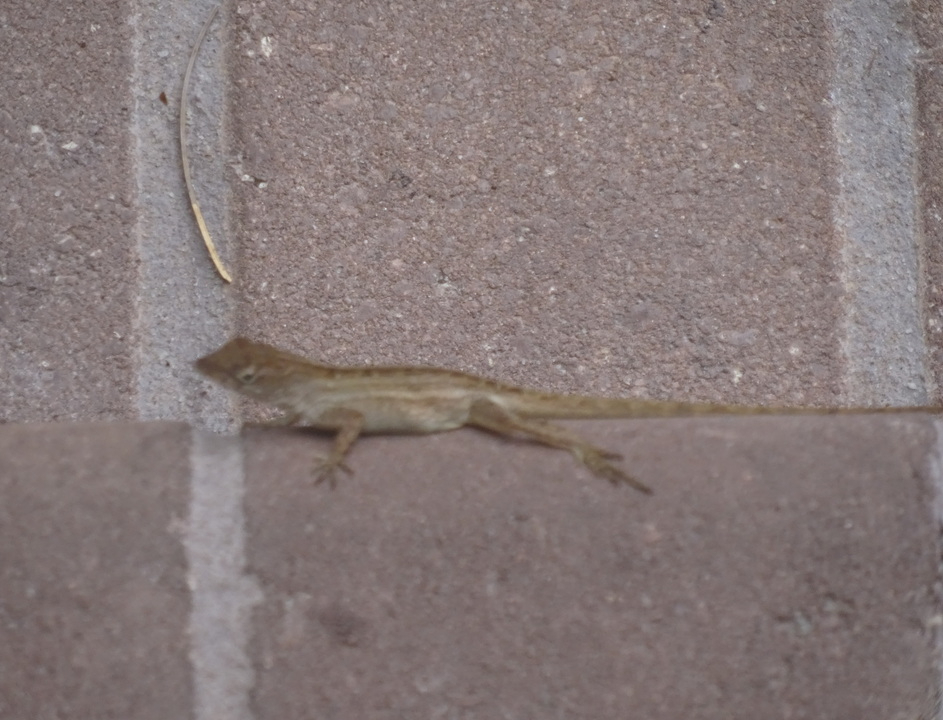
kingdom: Animalia
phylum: Chordata
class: Squamata
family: Dactyloidae
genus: Anolis
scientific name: Anolis sagrei
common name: Brown anole
